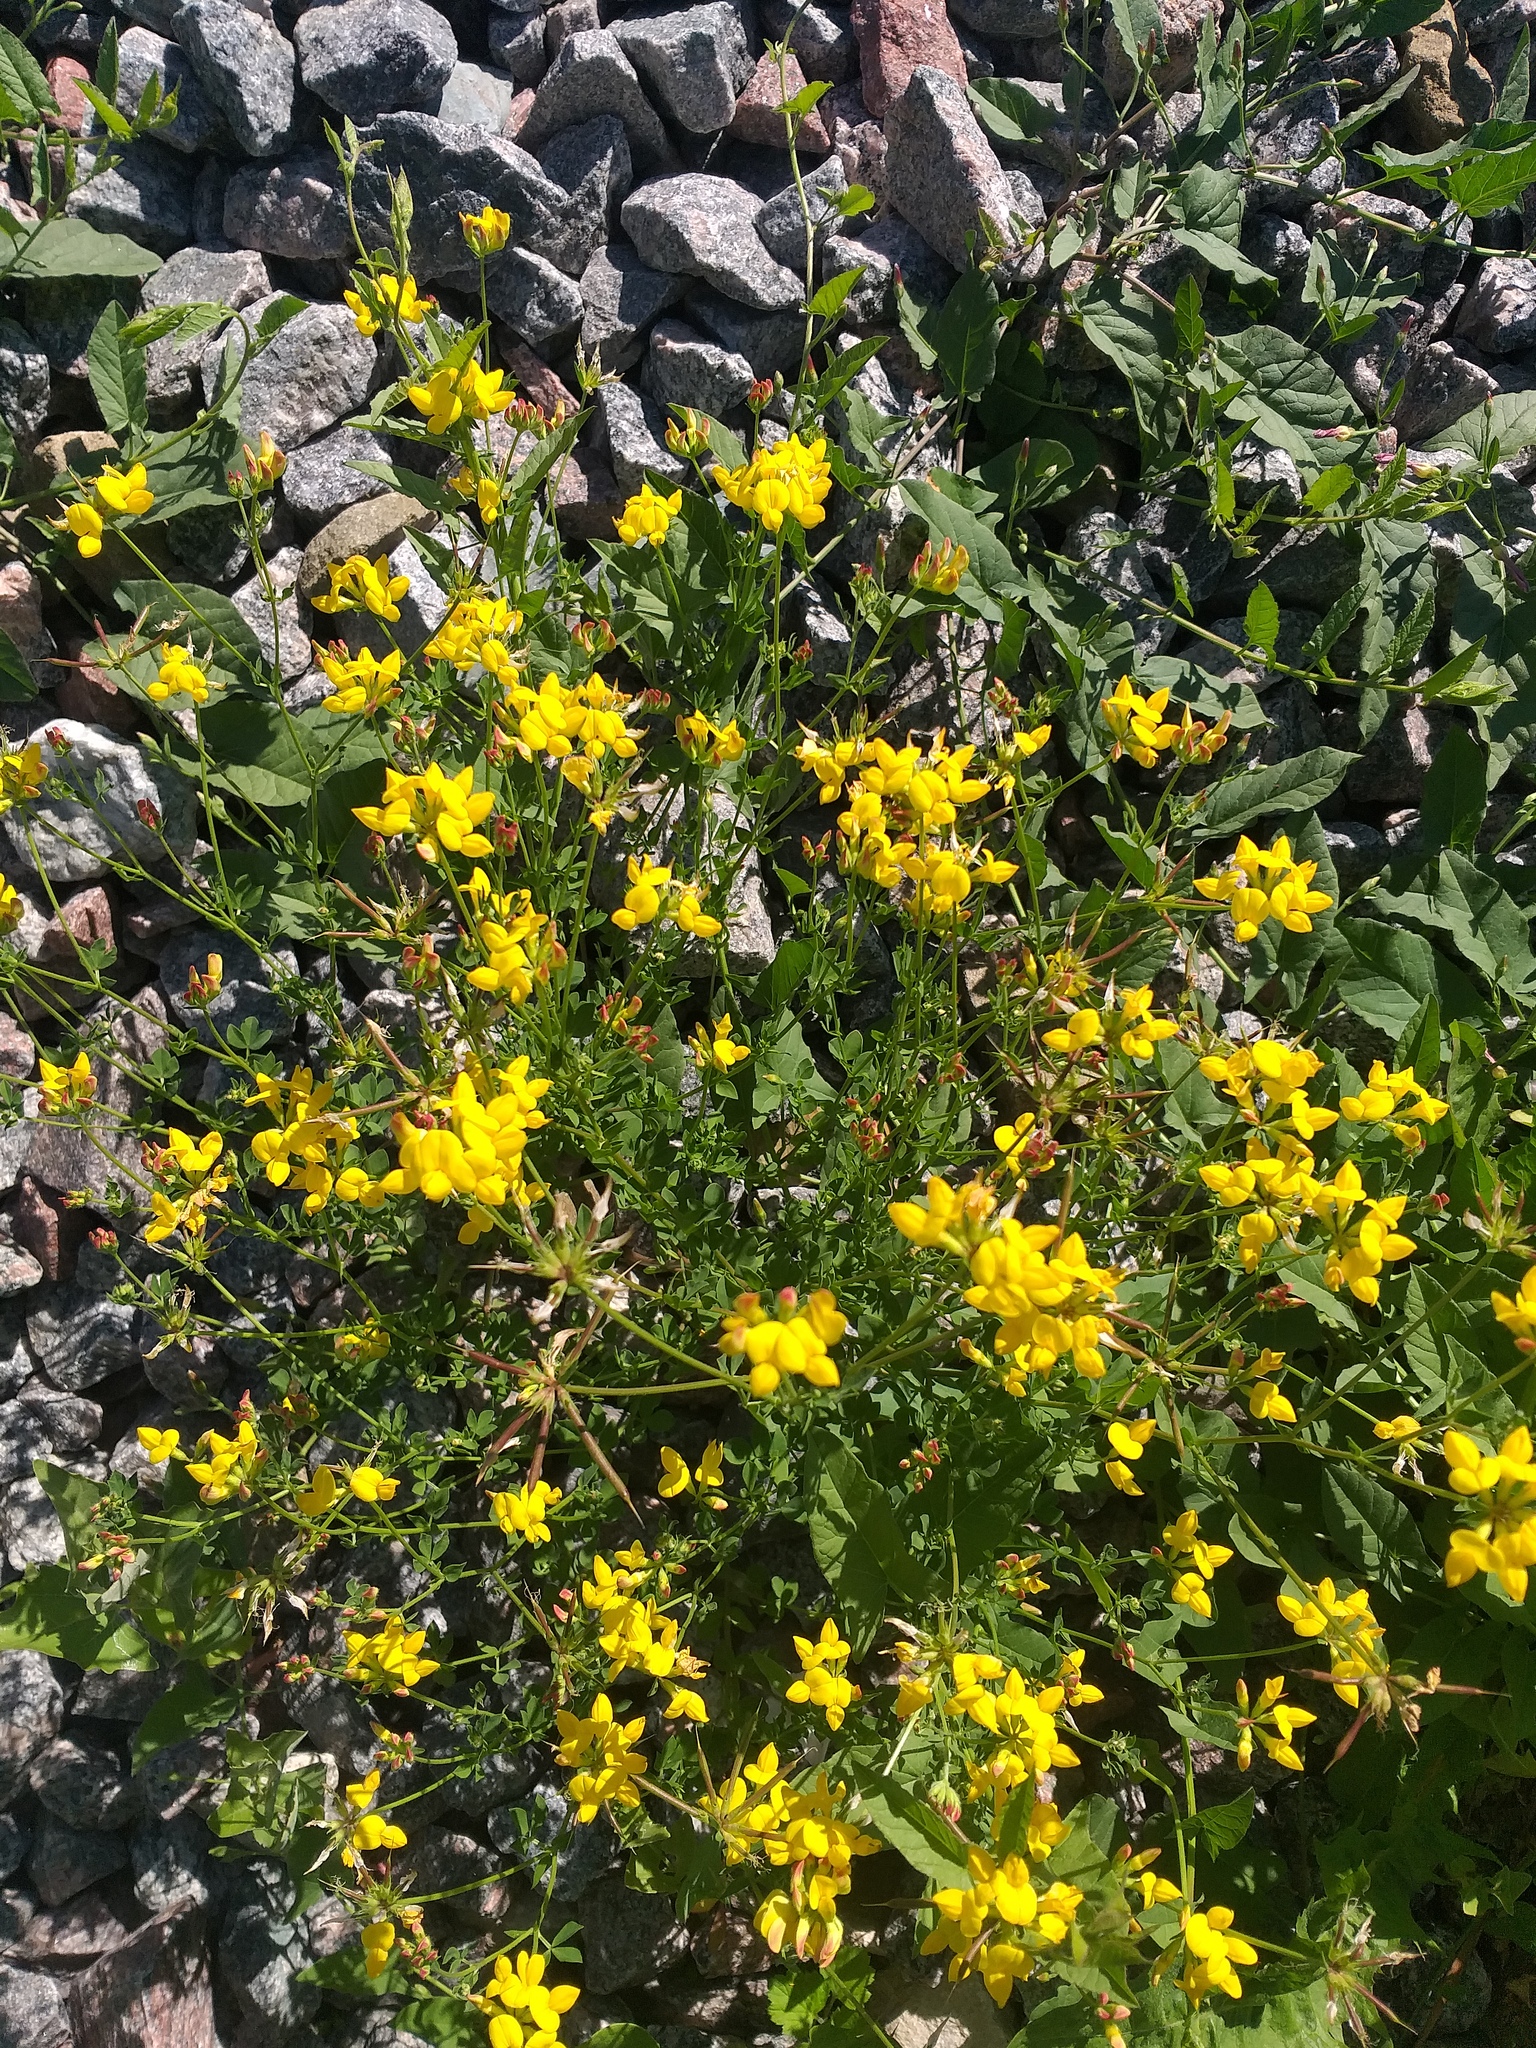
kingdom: Plantae
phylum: Tracheophyta
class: Magnoliopsida
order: Fabales
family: Fabaceae
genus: Lotus
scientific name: Lotus corniculatus
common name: Common bird's-foot-trefoil
